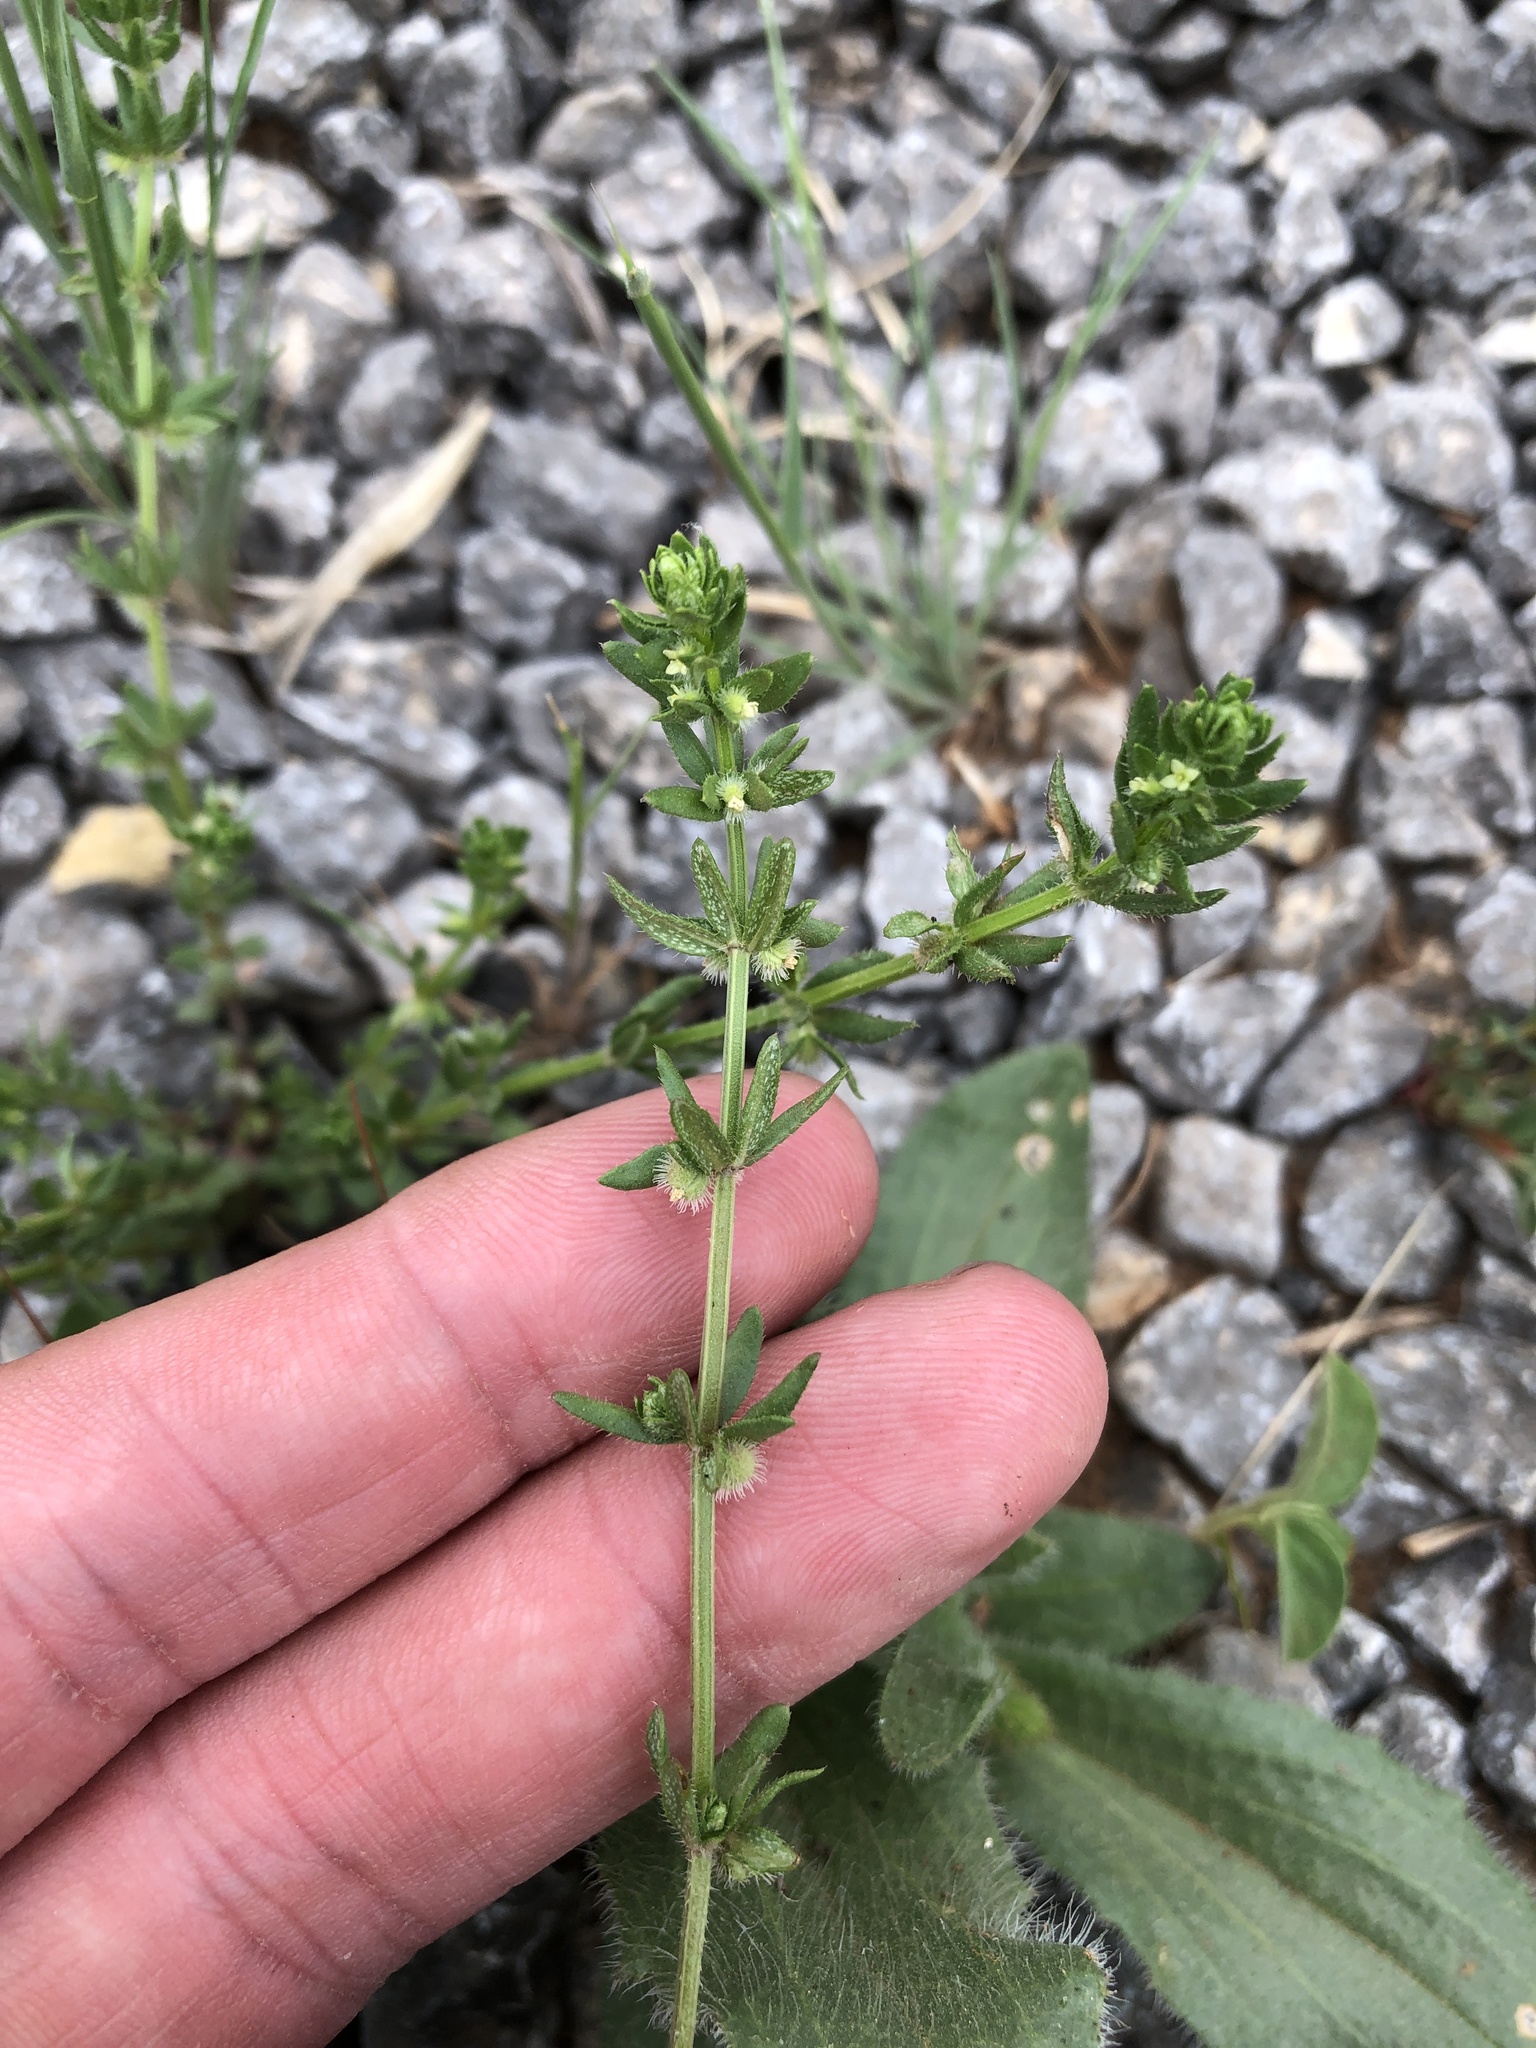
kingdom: Plantae
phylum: Tracheophyta
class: Magnoliopsida
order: Gentianales
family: Rubiaceae
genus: Galium
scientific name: Galium virgatum
